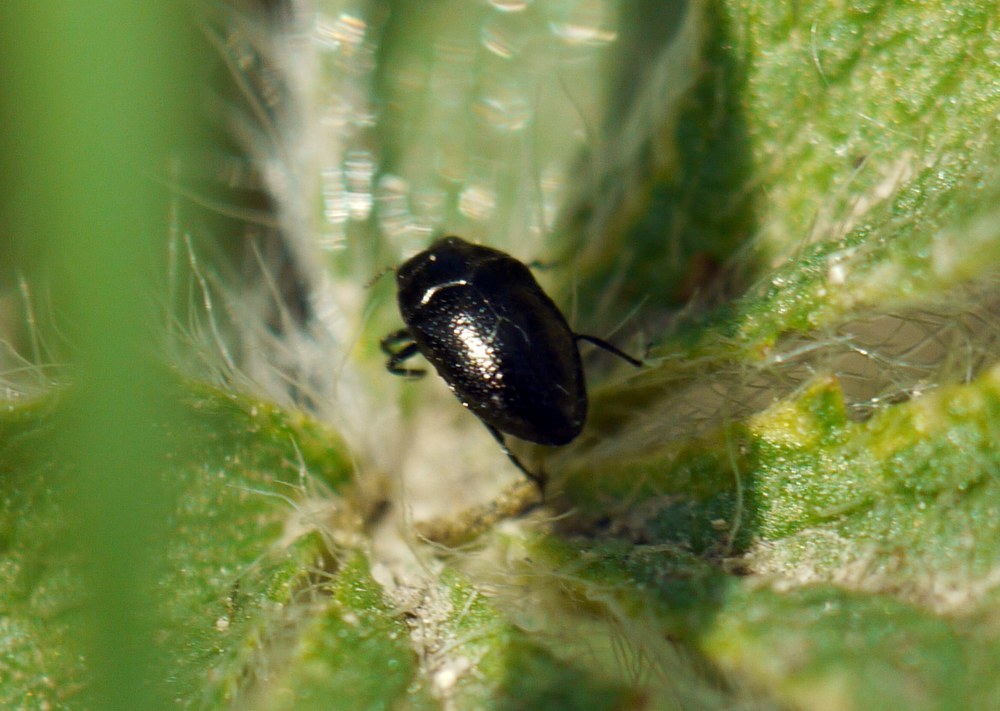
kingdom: Animalia
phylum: Arthropoda
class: Insecta
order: Coleoptera
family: Buprestidae
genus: Trachys
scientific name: Trachys fragariae
